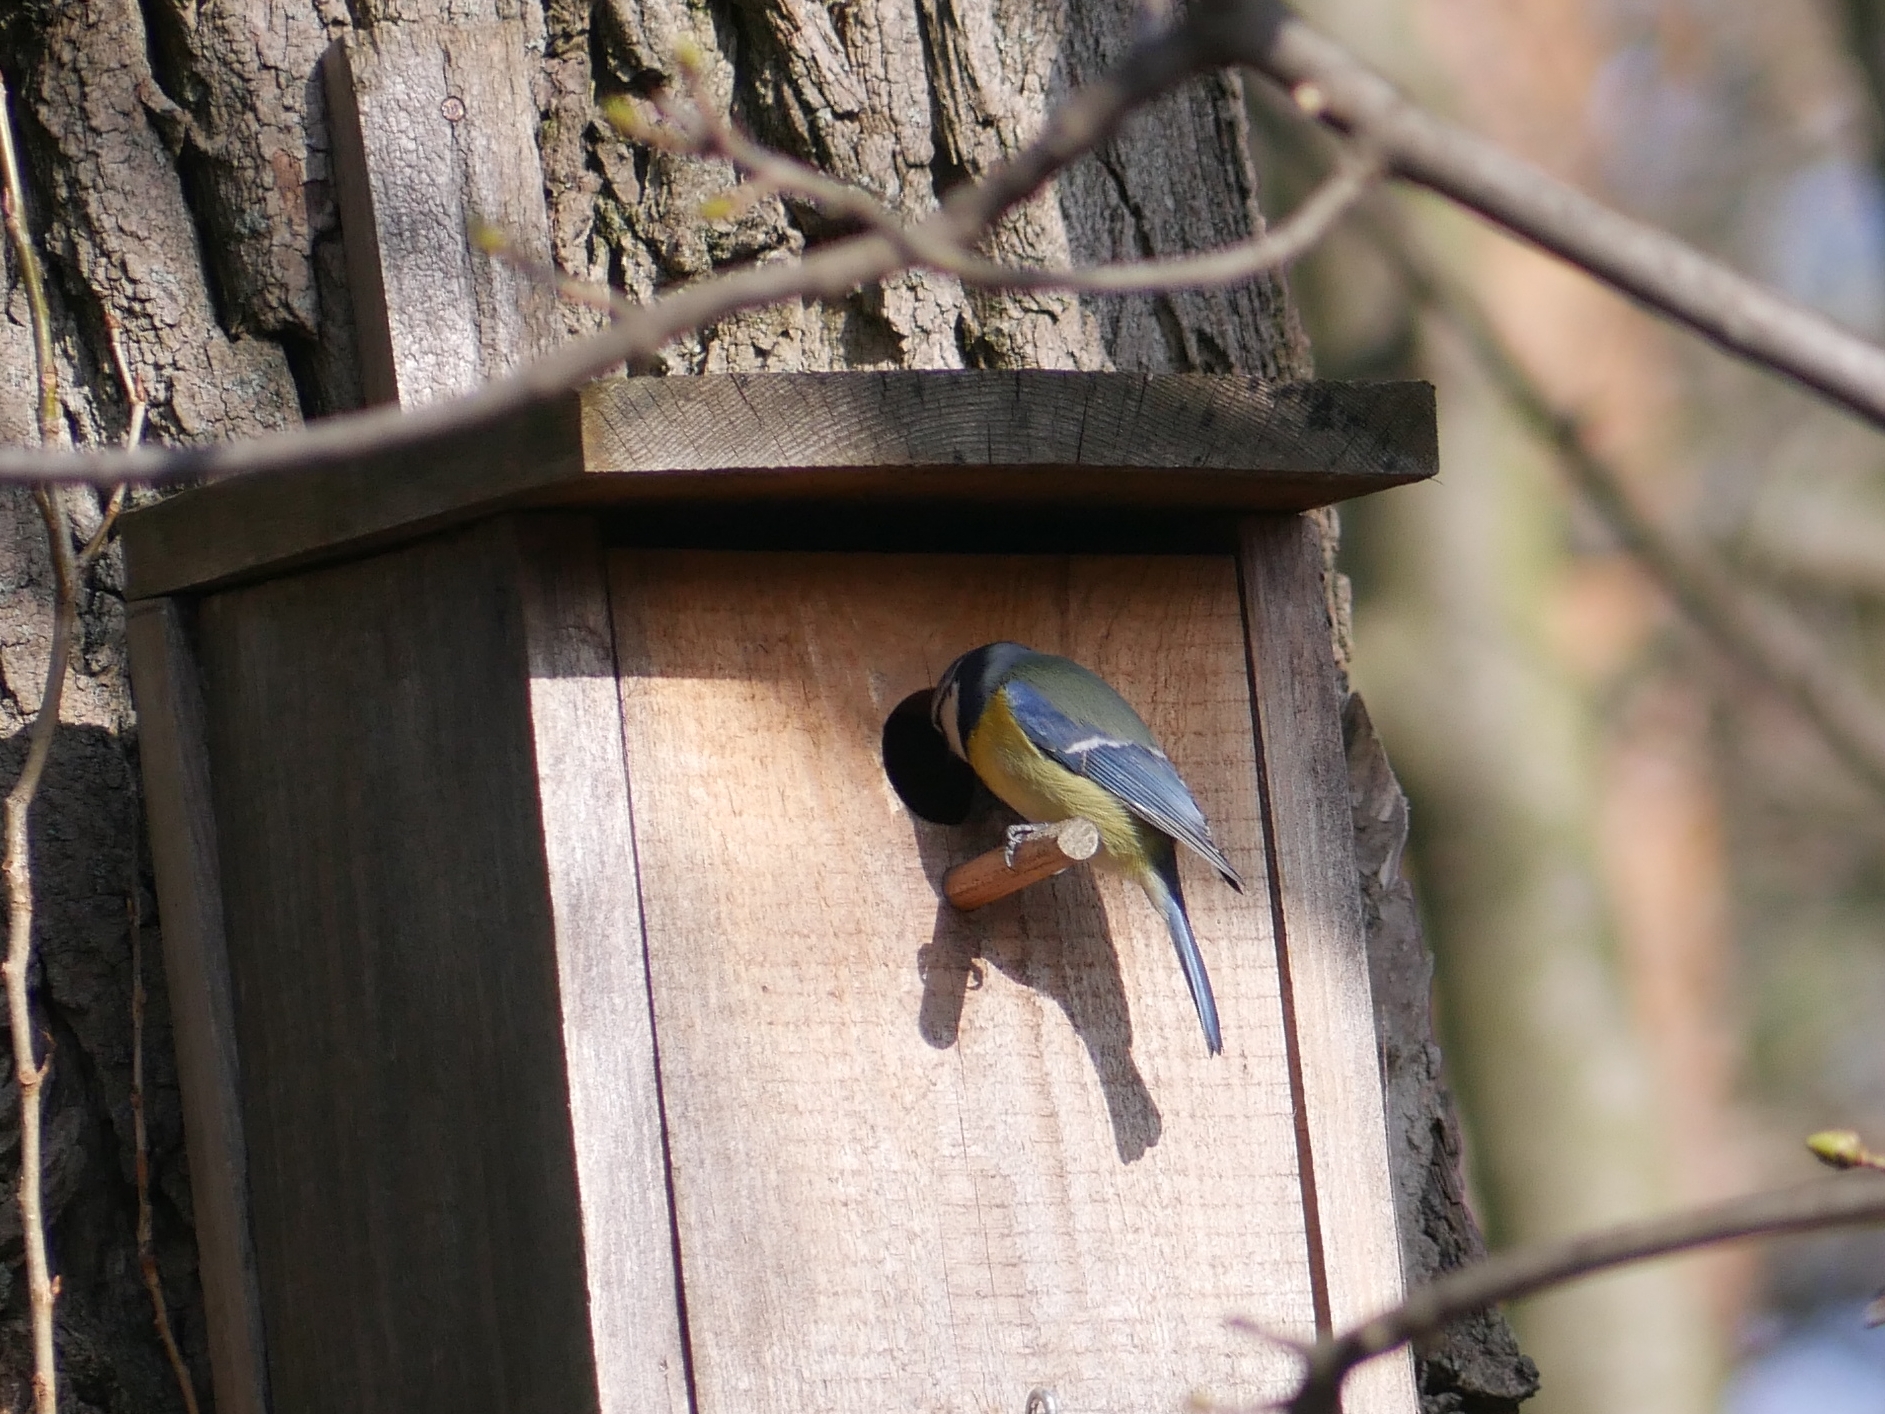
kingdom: Animalia
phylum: Chordata
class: Aves
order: Passeriformes
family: Paridae
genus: Cyanistes
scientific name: Cyanistes caeruleus
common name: Eurasian blue tit
